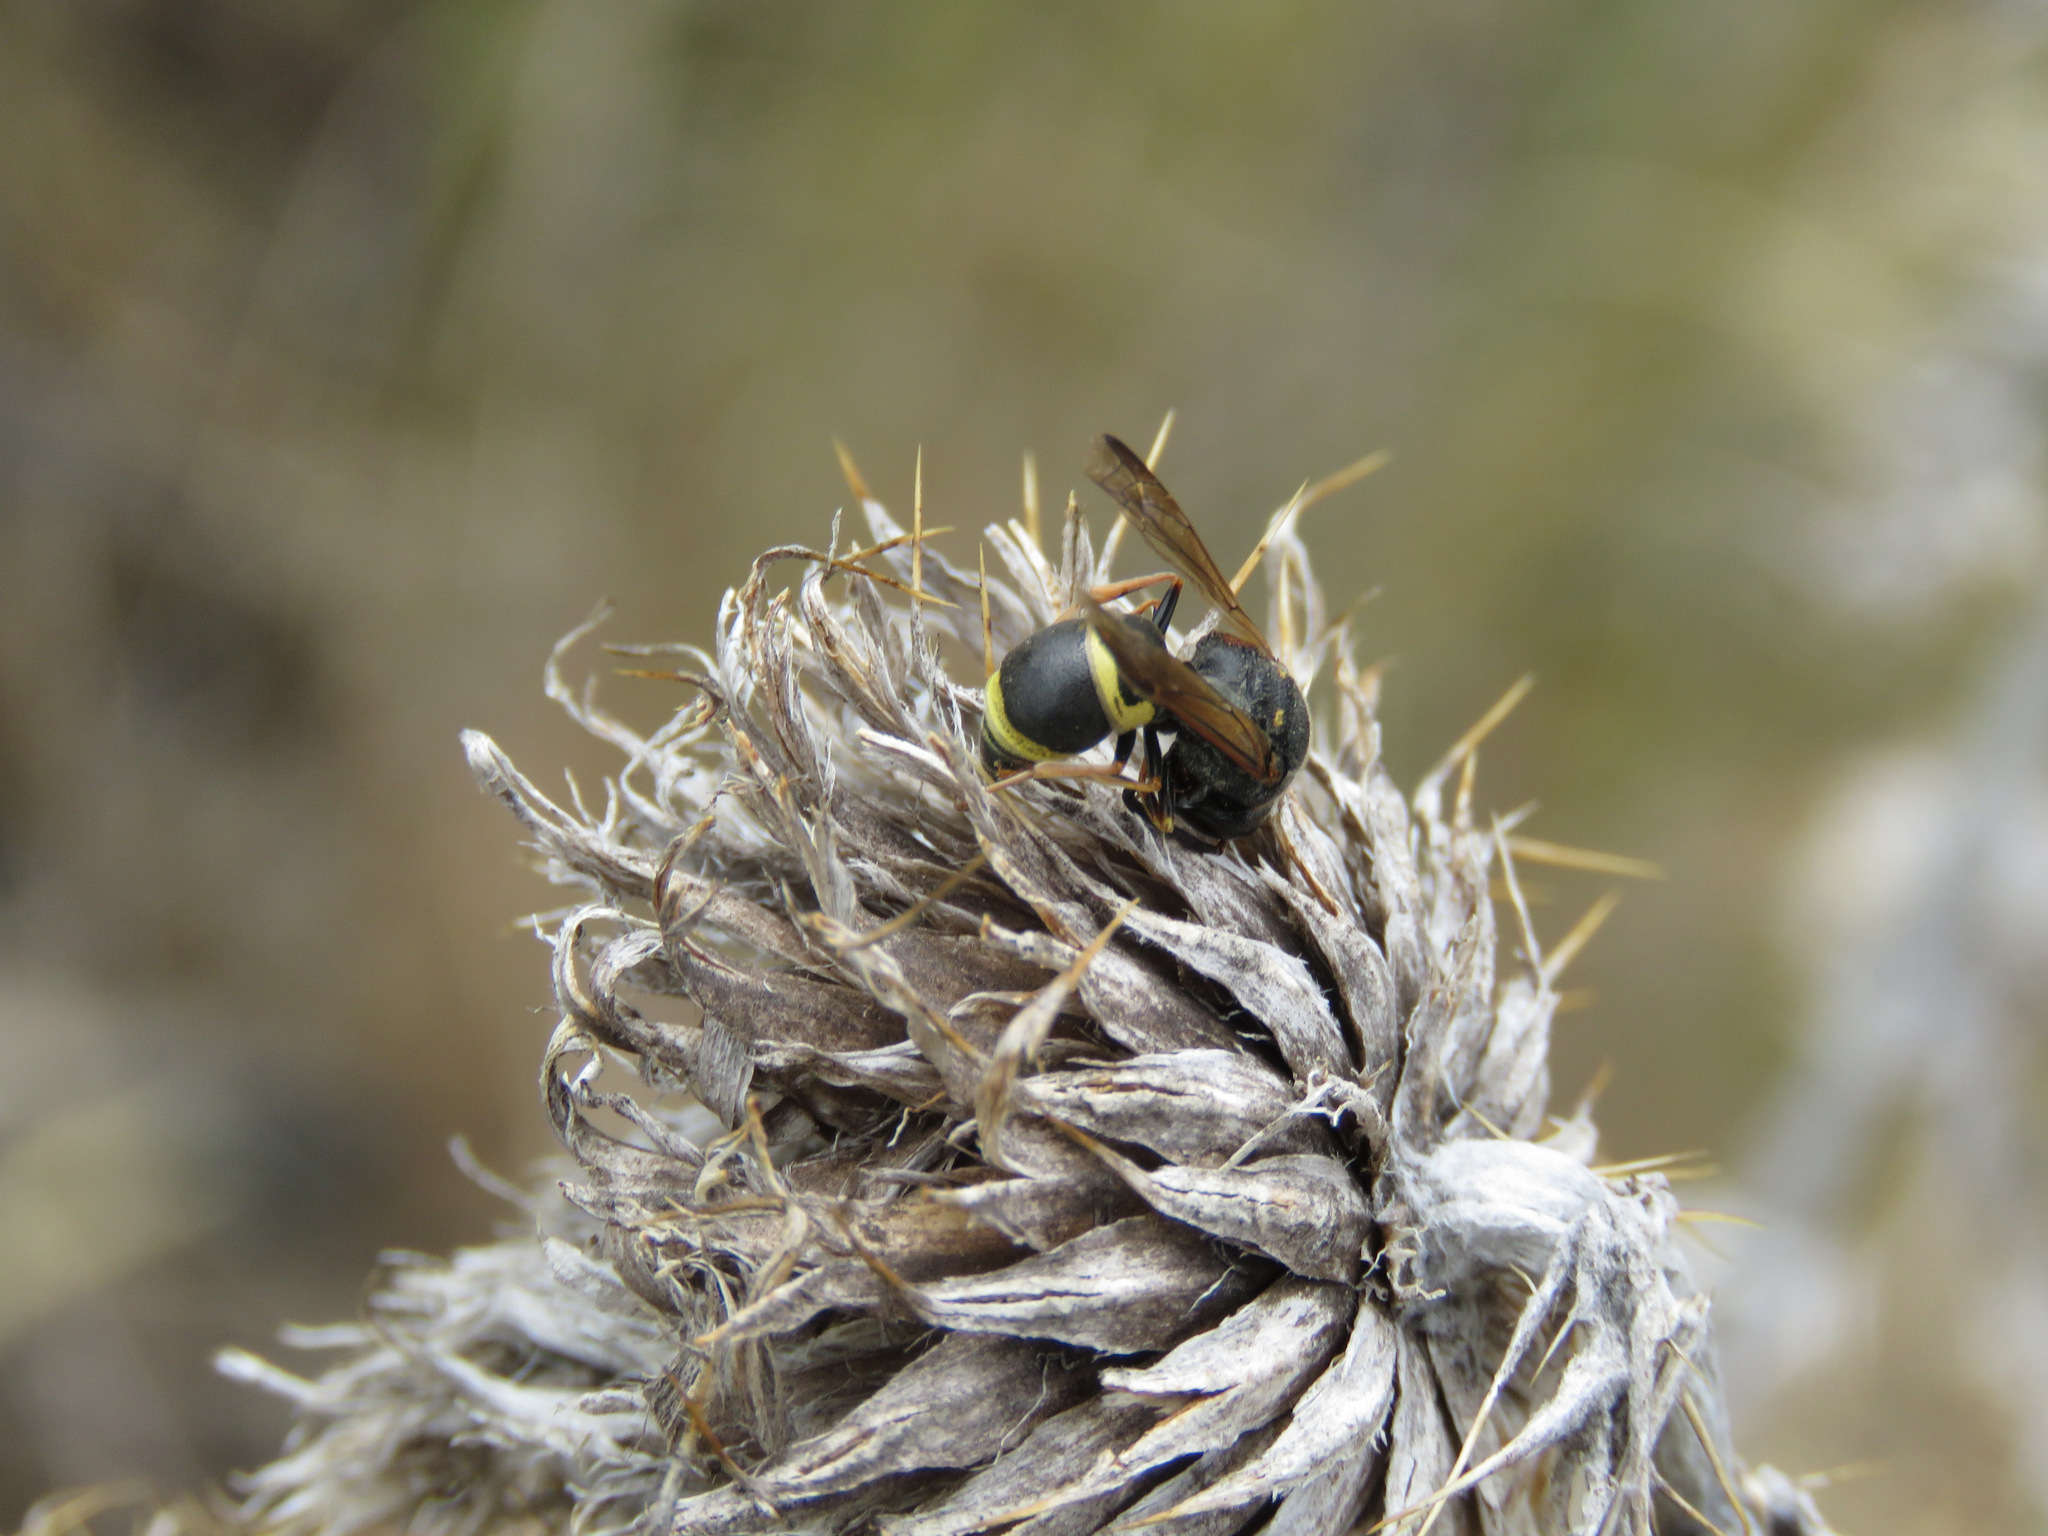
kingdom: Animalia
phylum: Arthropoda
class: Insecta
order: Hymenoptera
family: Eumenidae
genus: Euodynerus
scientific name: Euodynerus castigatus
